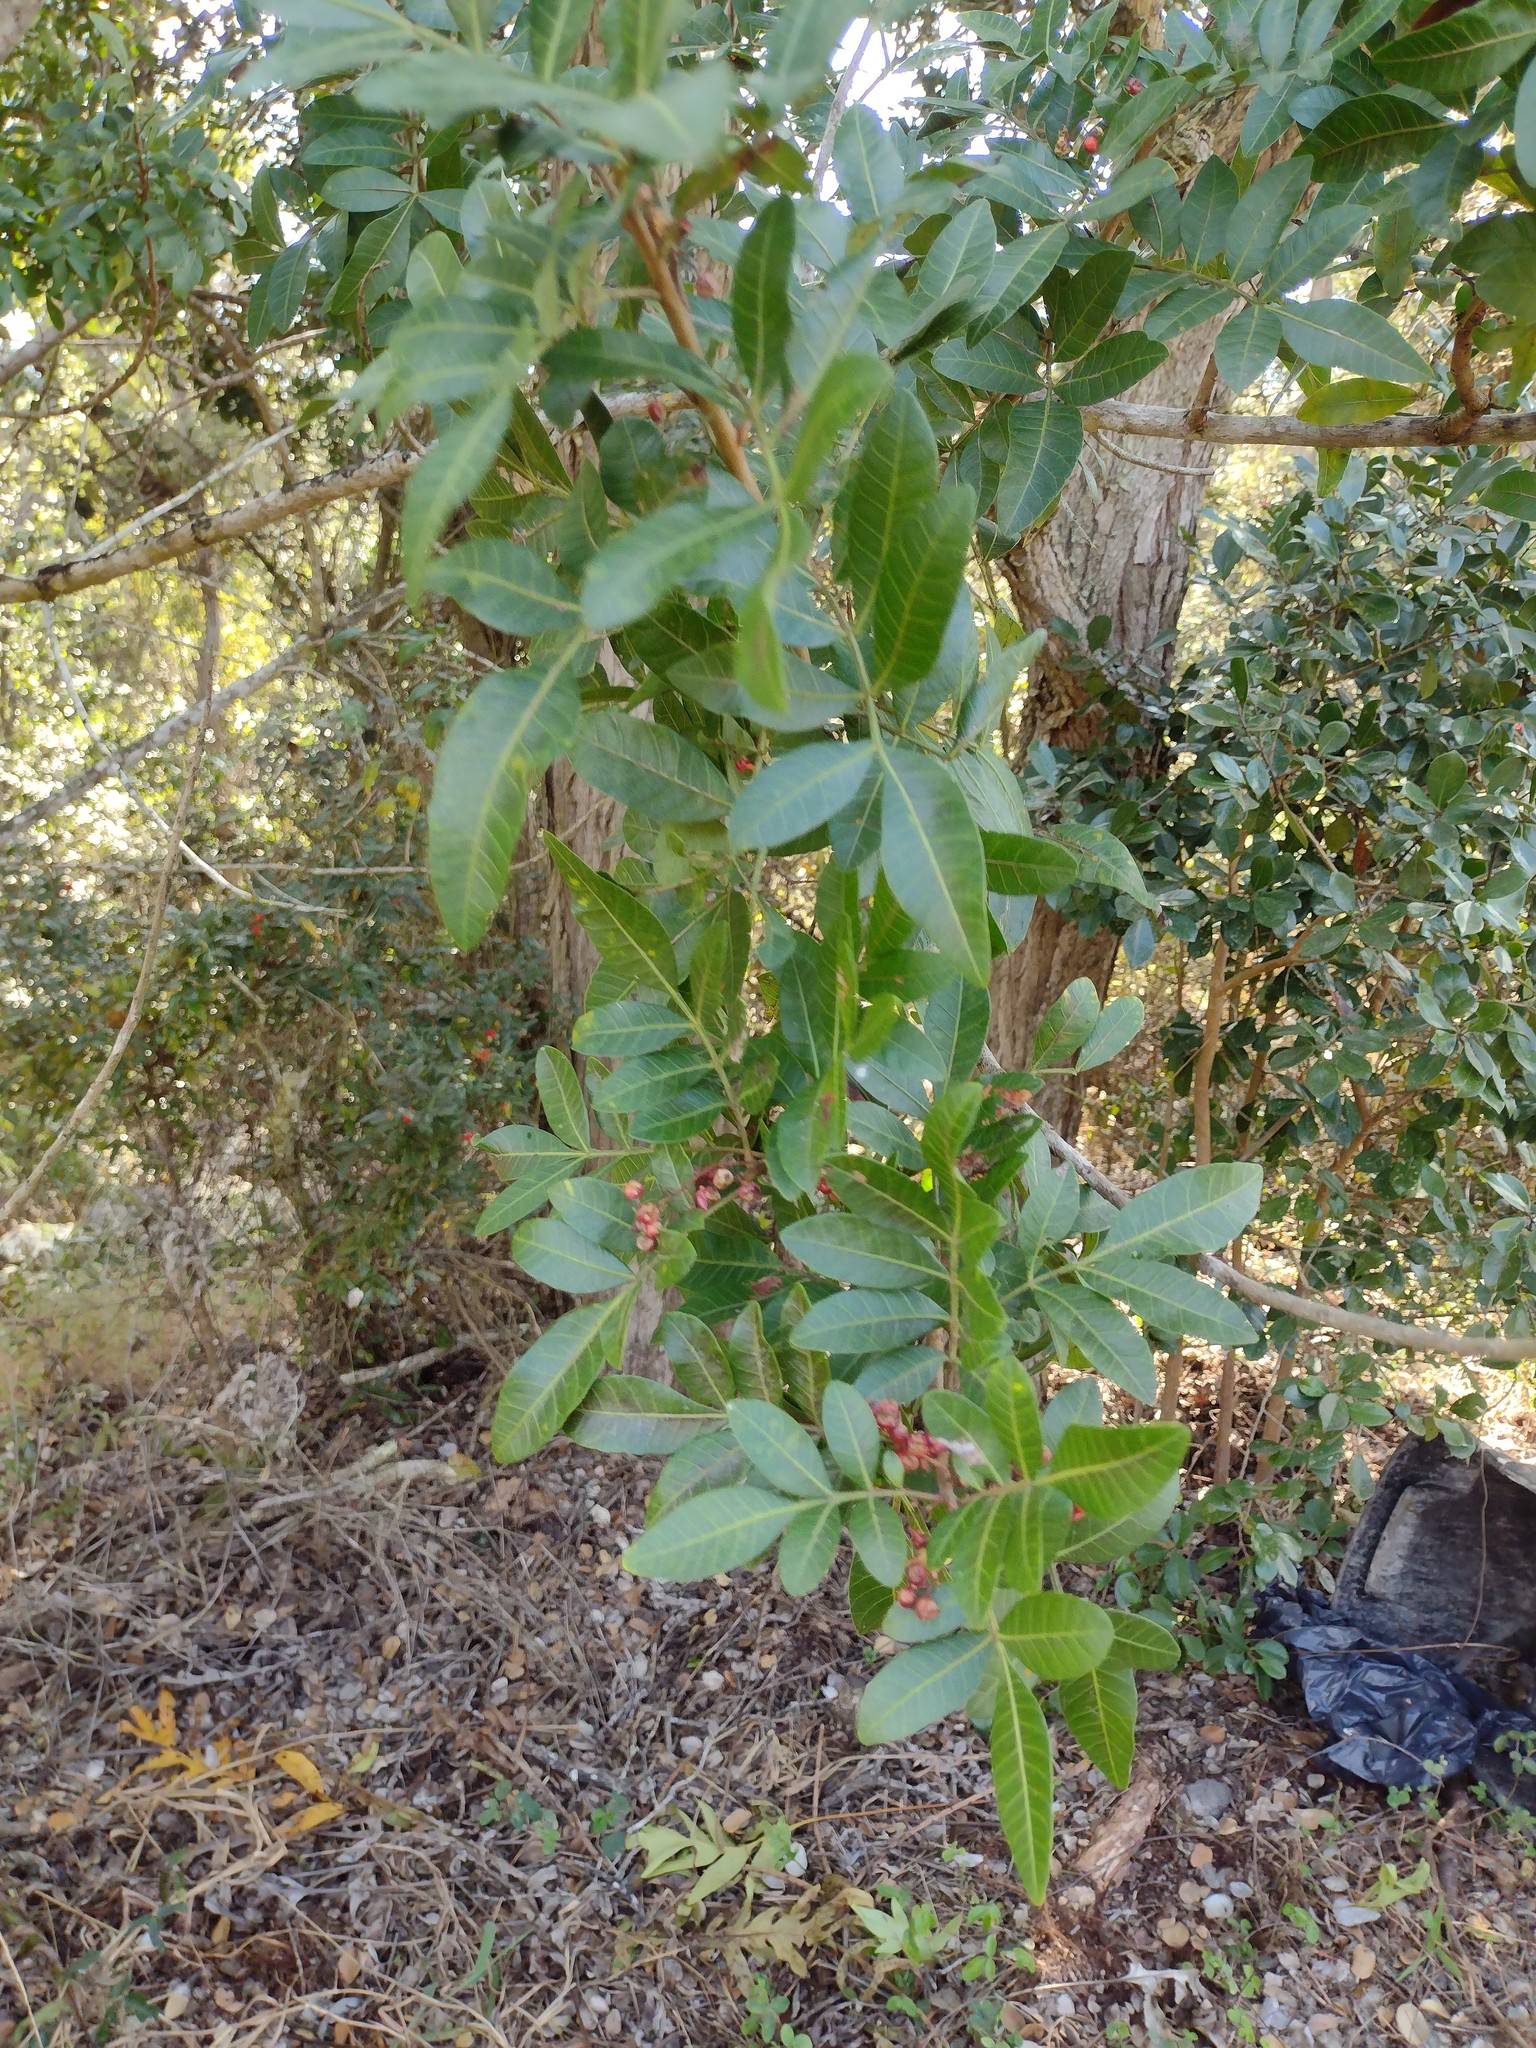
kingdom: Plantae
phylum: Tracheophyta
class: Magnoliopsida
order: Sapindales
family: Anacardiaceae
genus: Schinus
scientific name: Schinus terebinthifolia
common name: Brazilian peppertree
